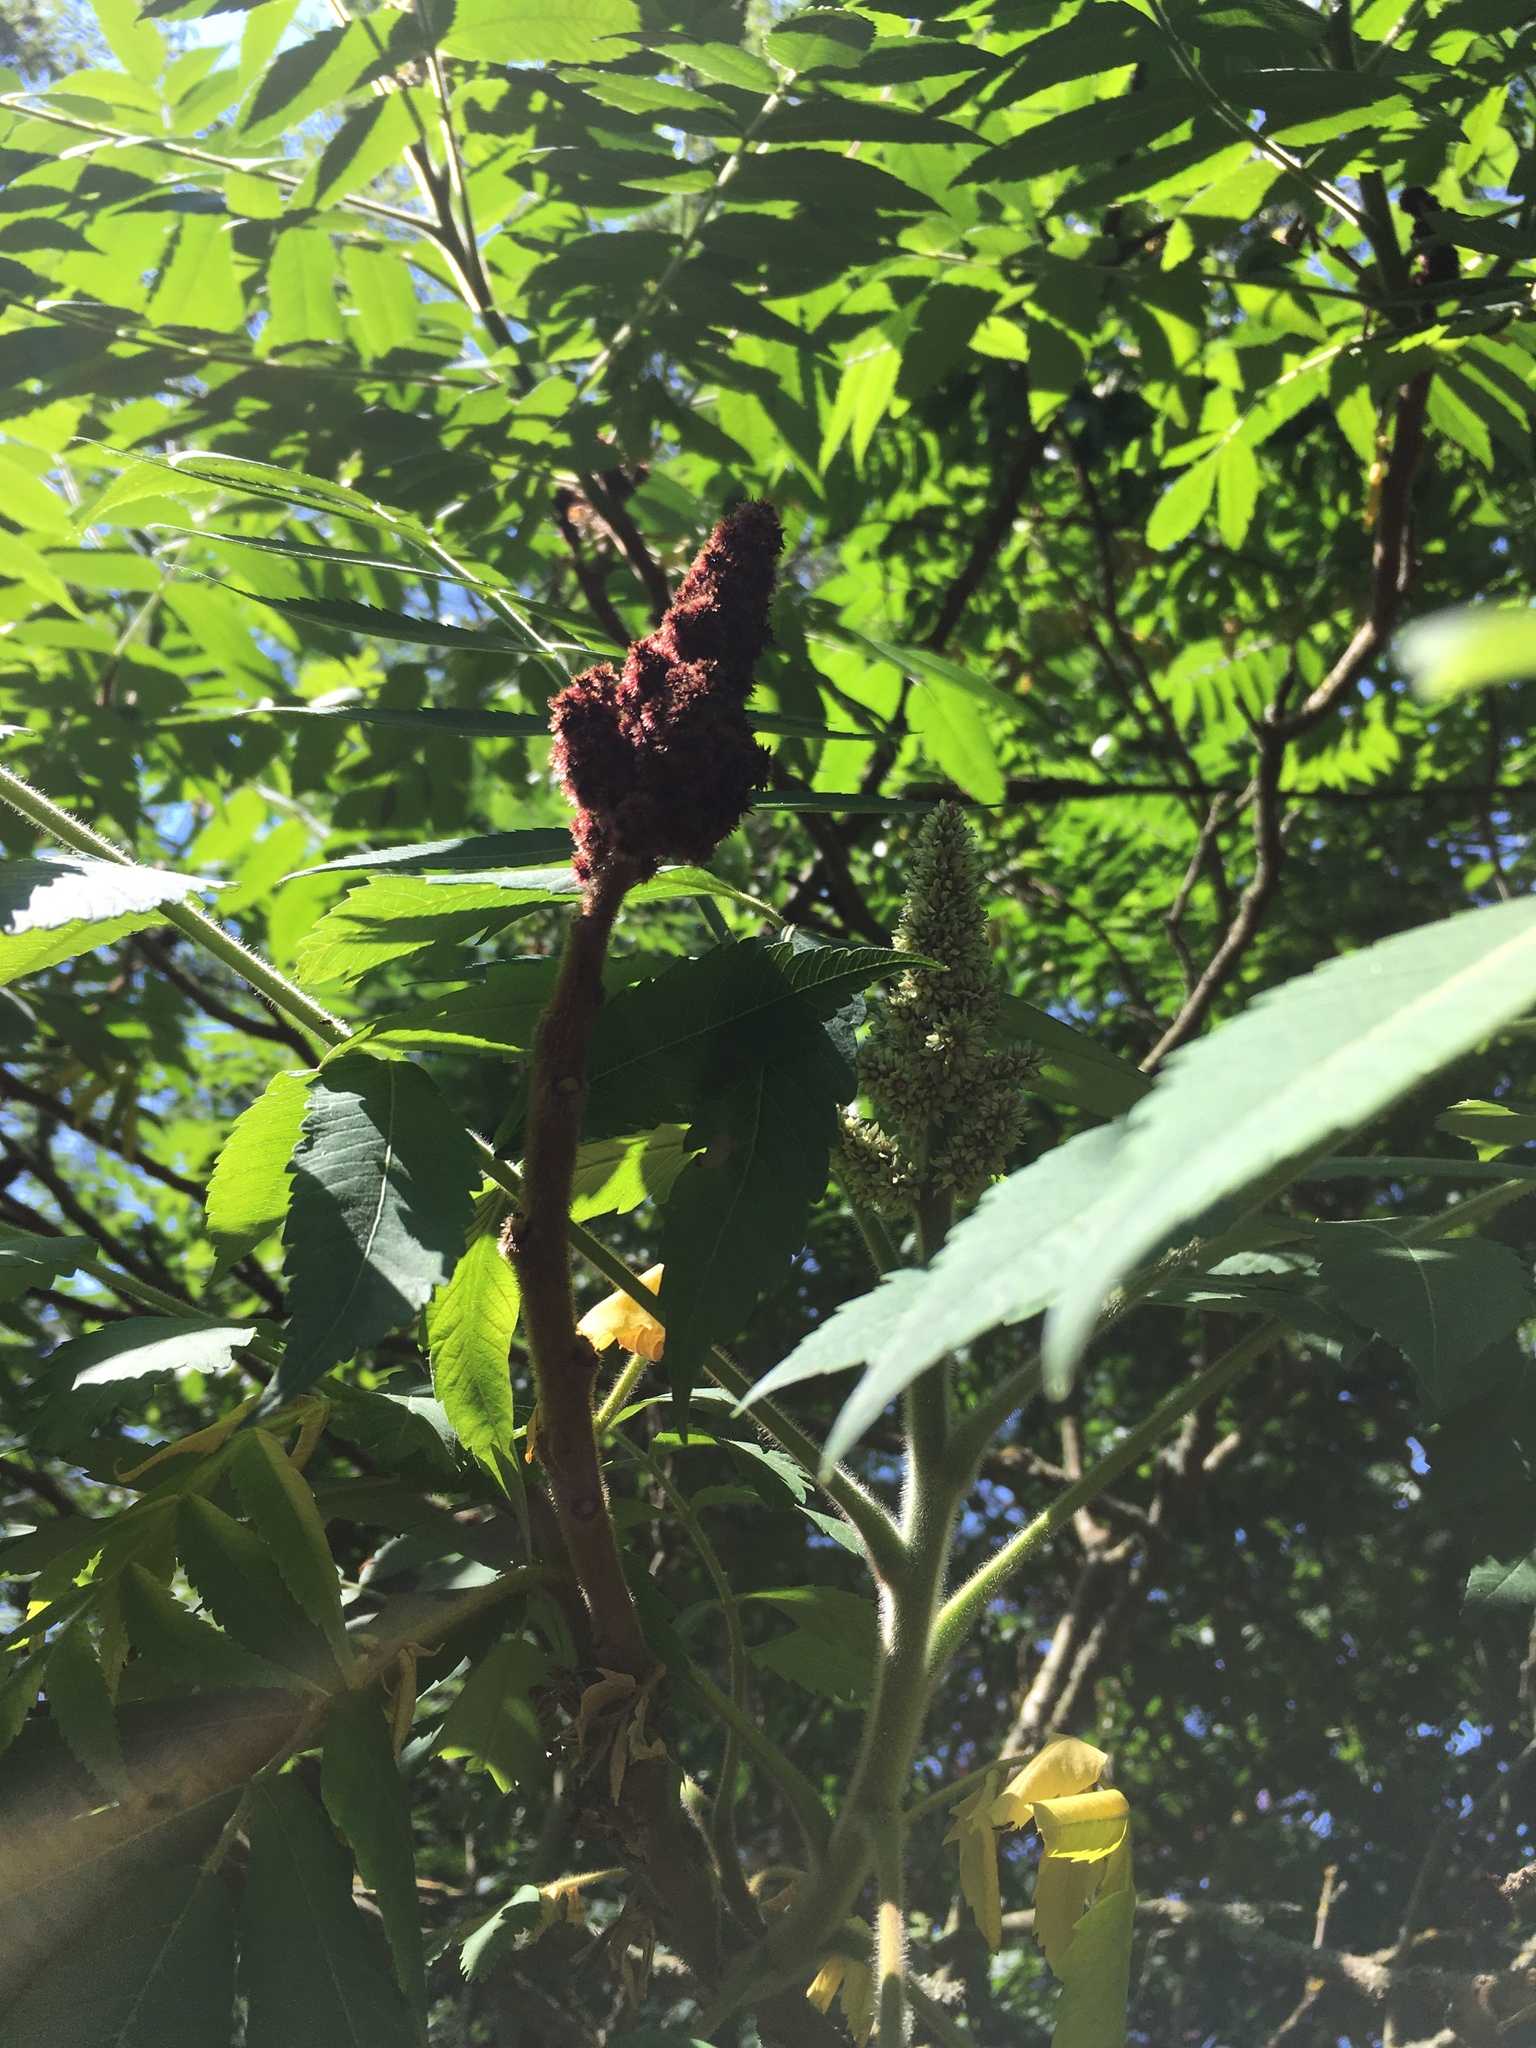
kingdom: Plantae
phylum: Tracheophyta
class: Magnoliopsida
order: Sapindales
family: Anacardiaceae
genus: Rhus
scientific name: Rhus typhina
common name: Staghorn sumac
